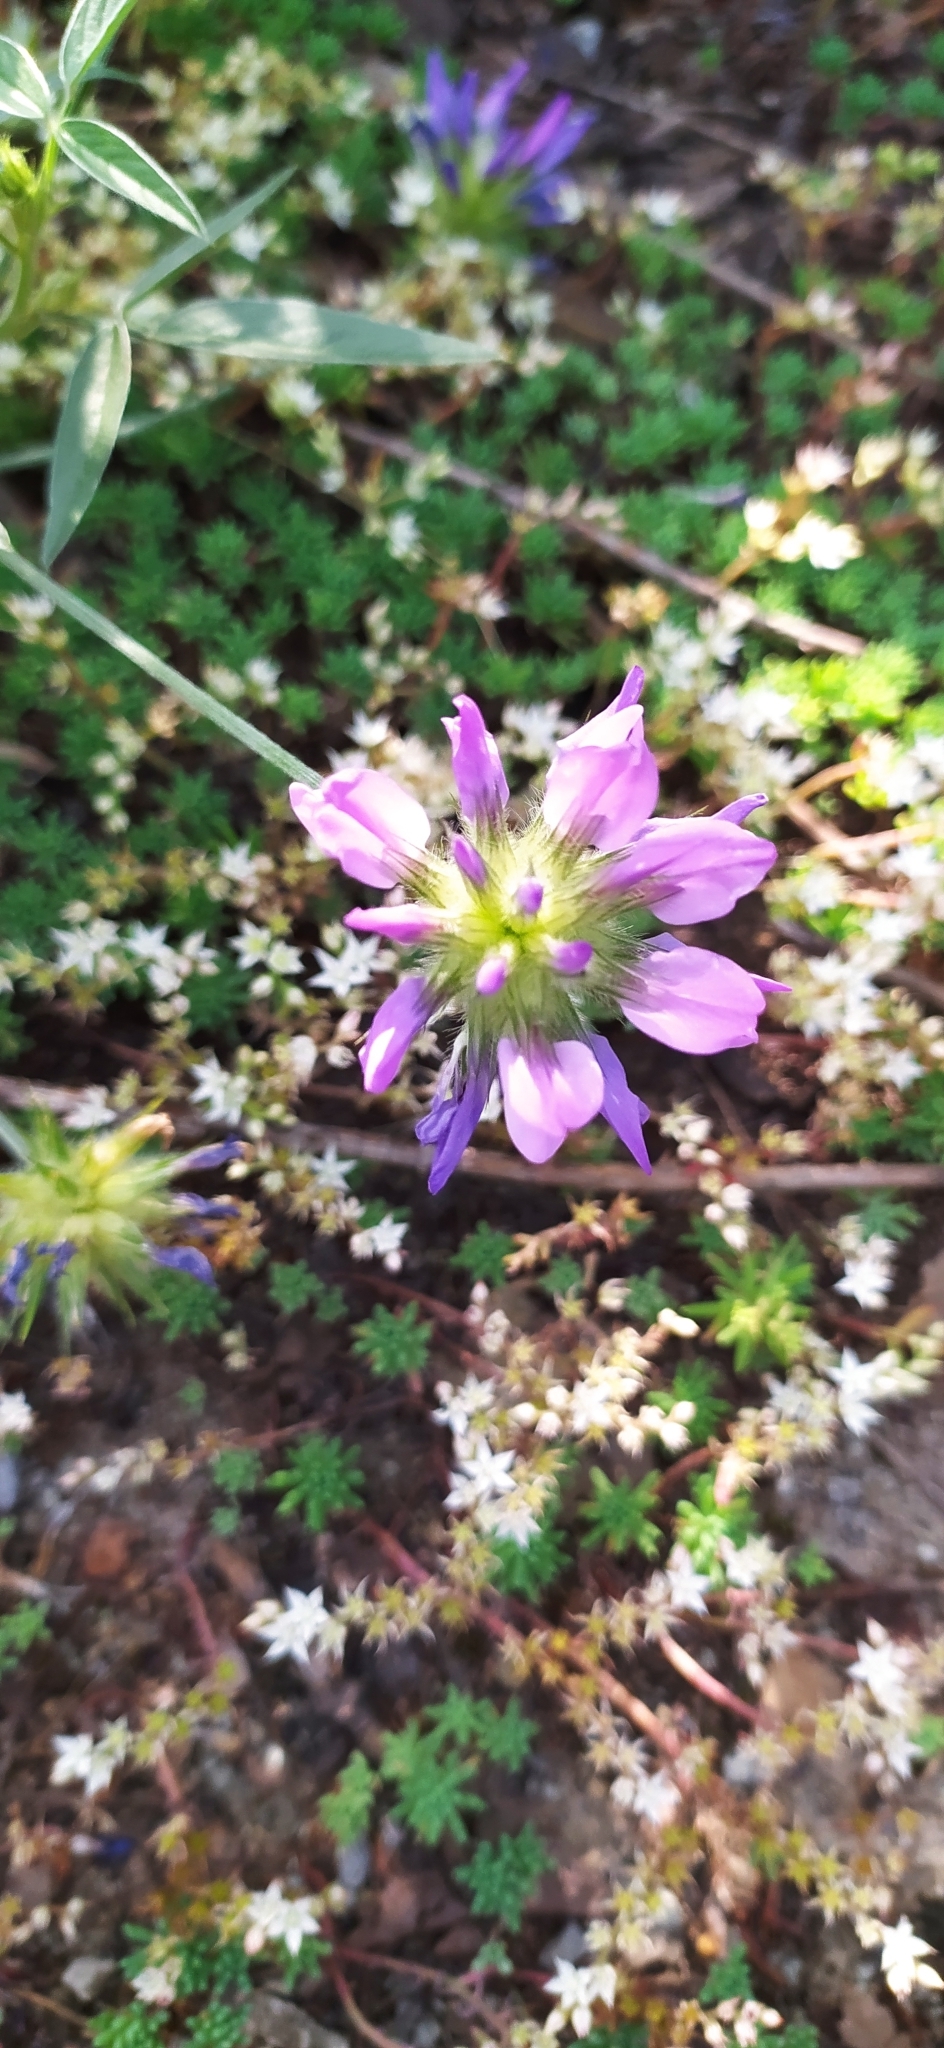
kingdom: Plantae
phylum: Tracheophyta
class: Magnoliopsida
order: Fabales
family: Fabaceae
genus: Bituminaria
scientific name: Bituminaria bituminosa
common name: Arabian pea
